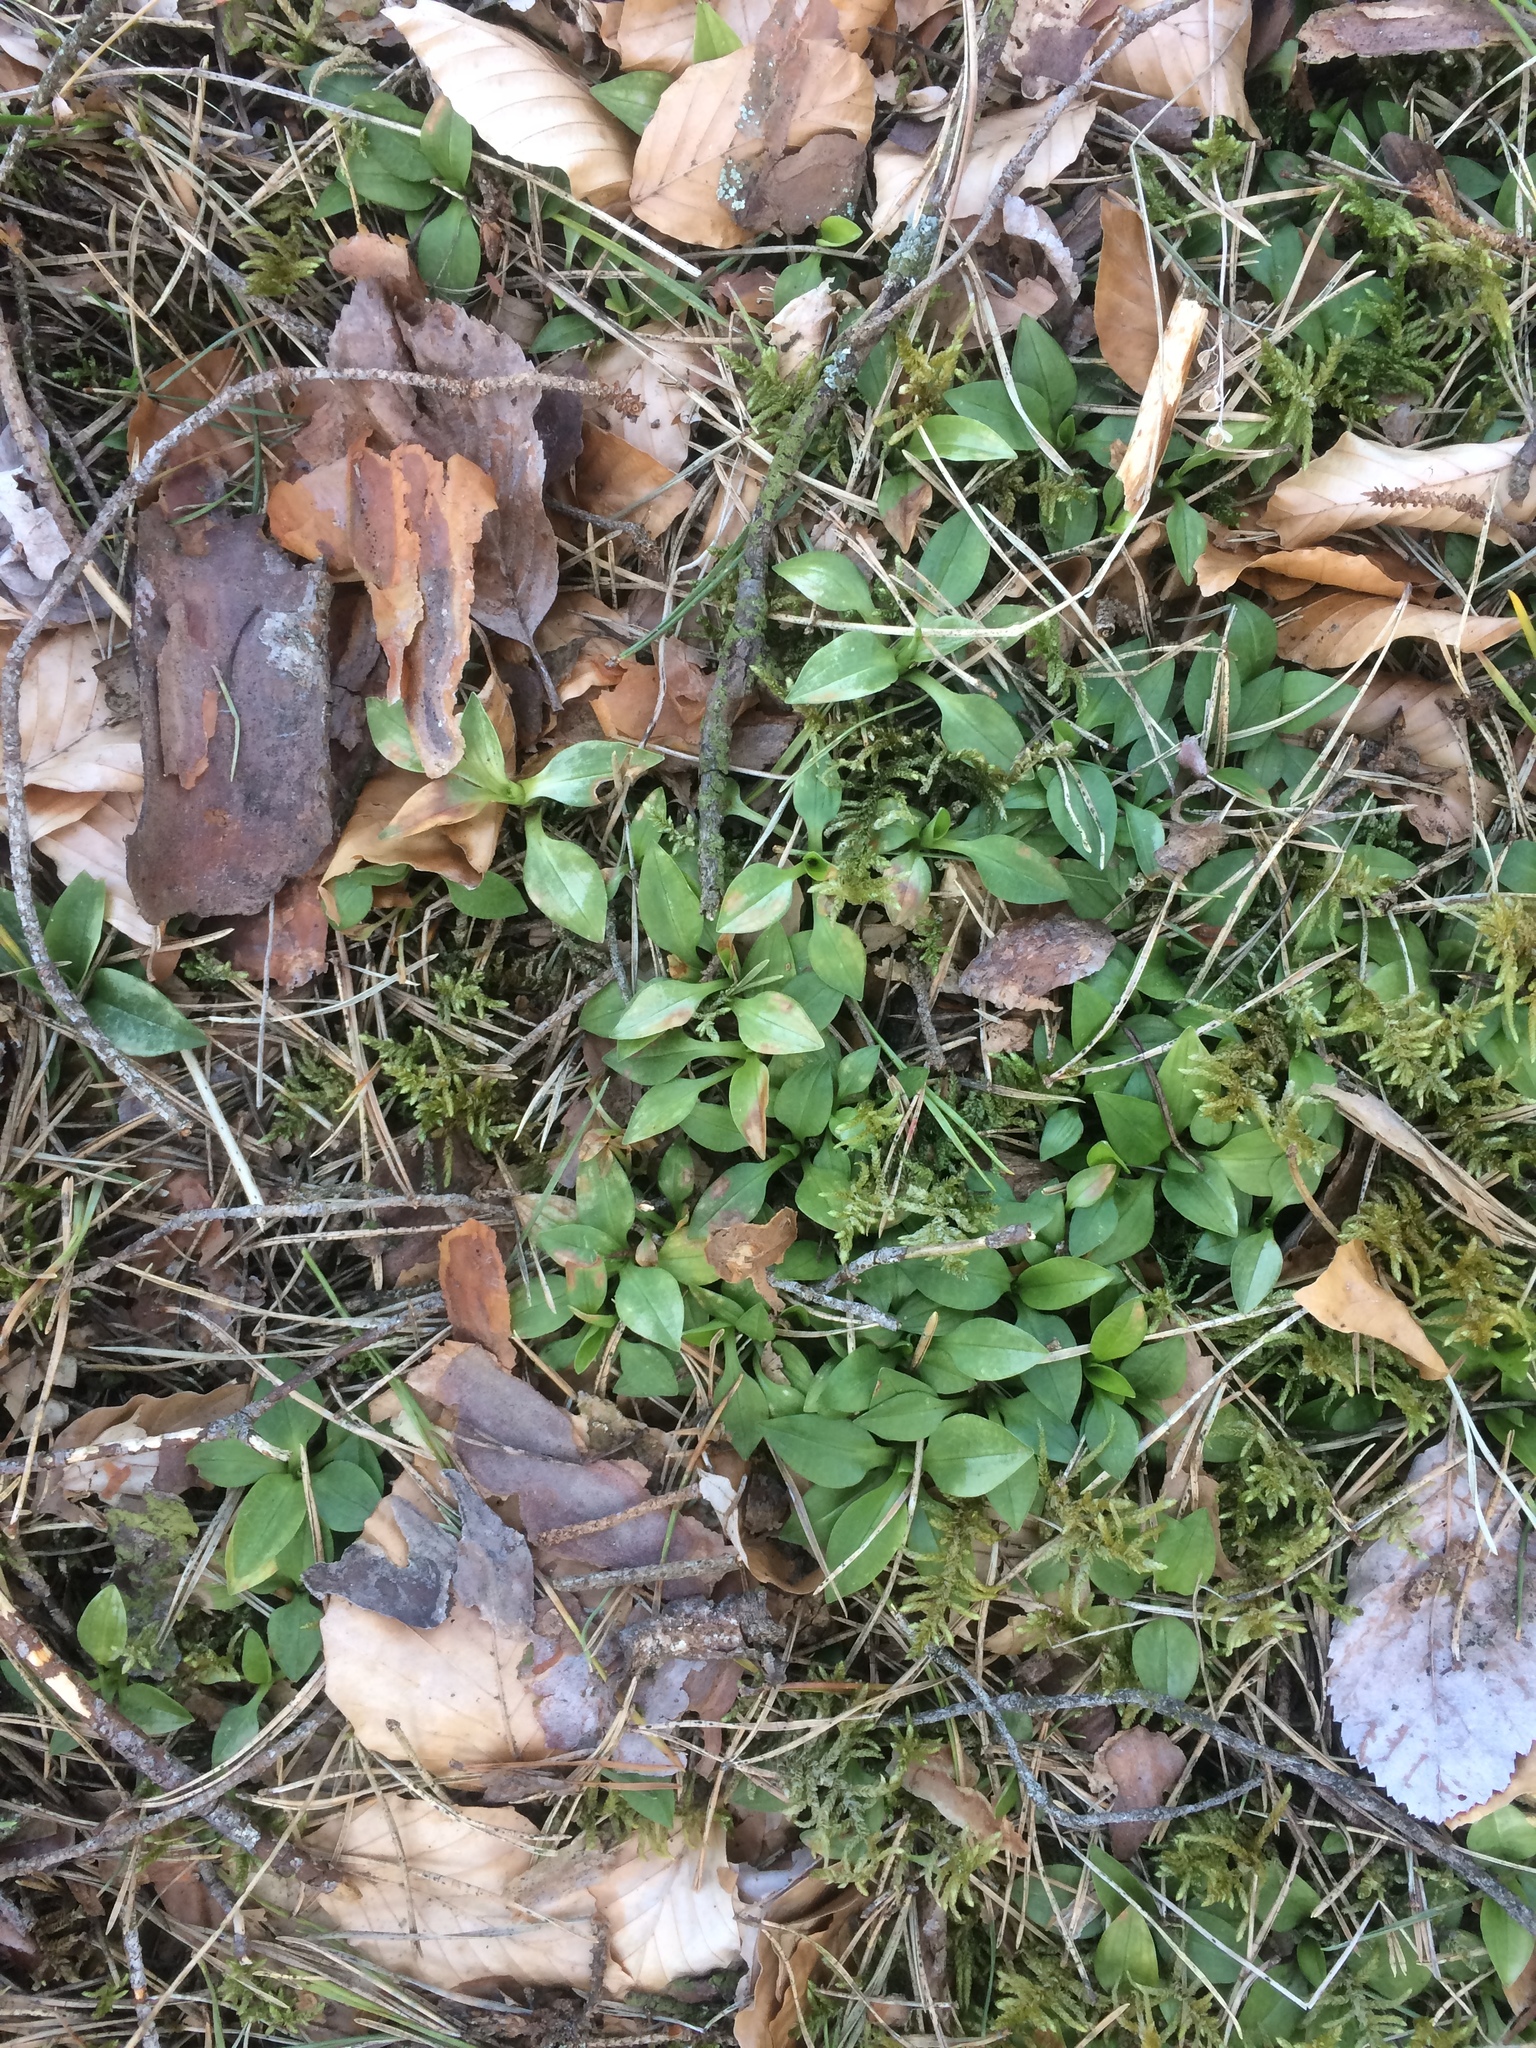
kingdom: Plantae
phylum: Tracheophyta
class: Liliopsida
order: Asparagales
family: Orchidaceae
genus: Goodyera
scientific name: Goodyera repens
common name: Creeping lady's-tresses
